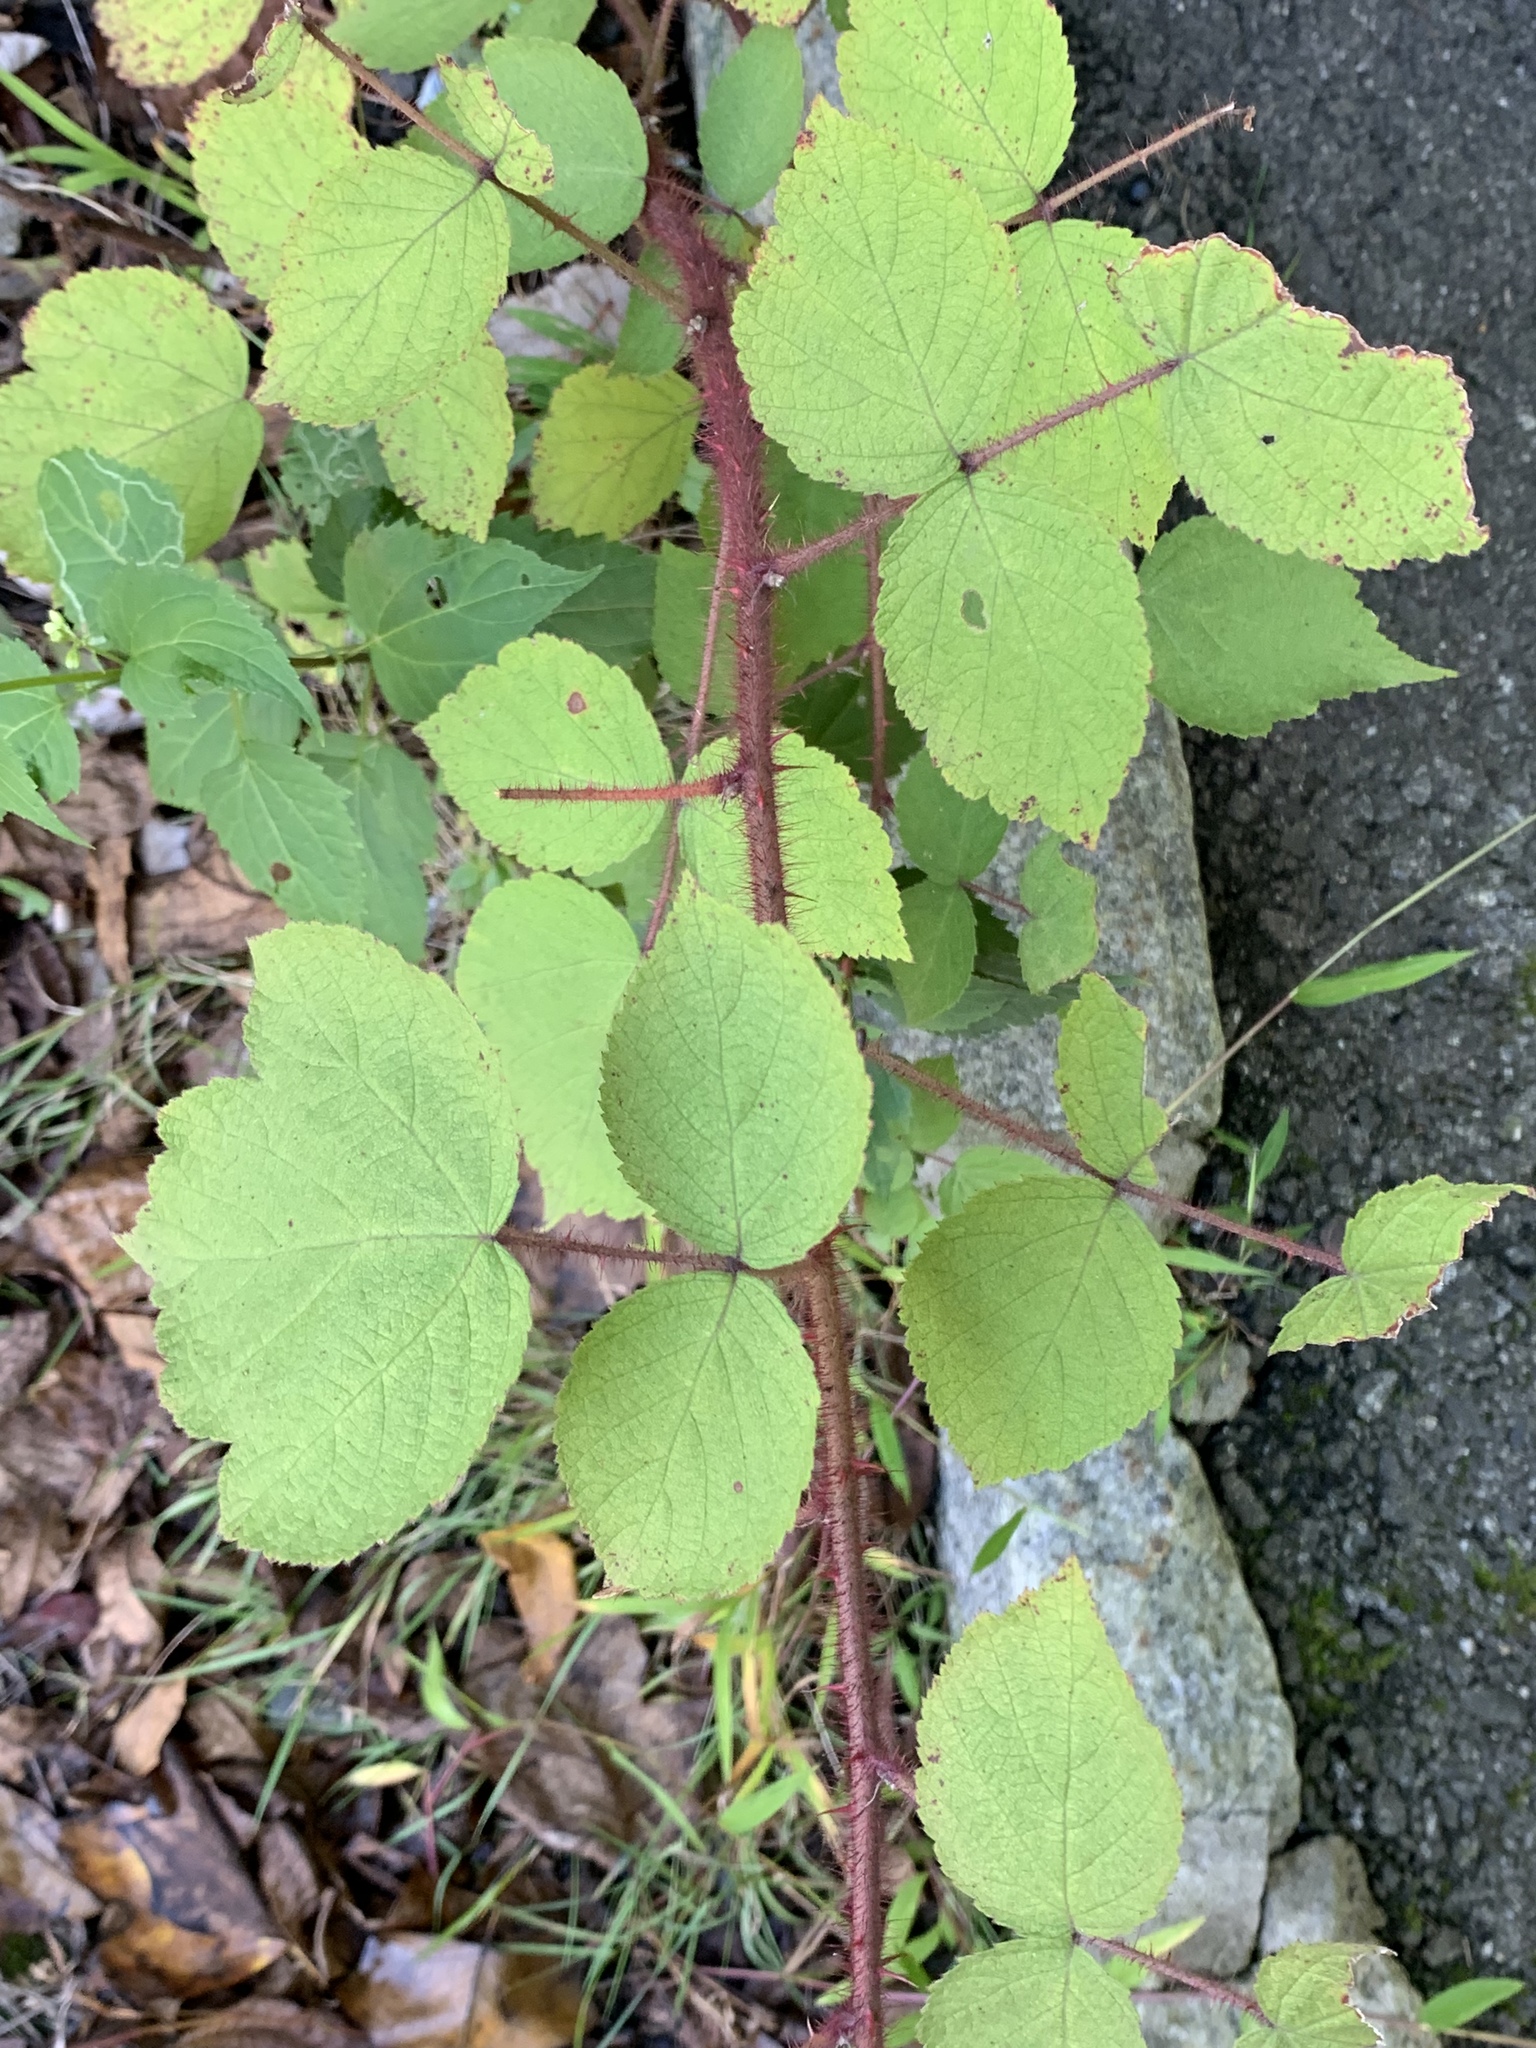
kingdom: Plantae
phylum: Tracheophyta
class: Magnoliopsida
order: Rosales
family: Rosaceae
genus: Rubus
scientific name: Rubus phoenicolasius
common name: Japanese wineberry
